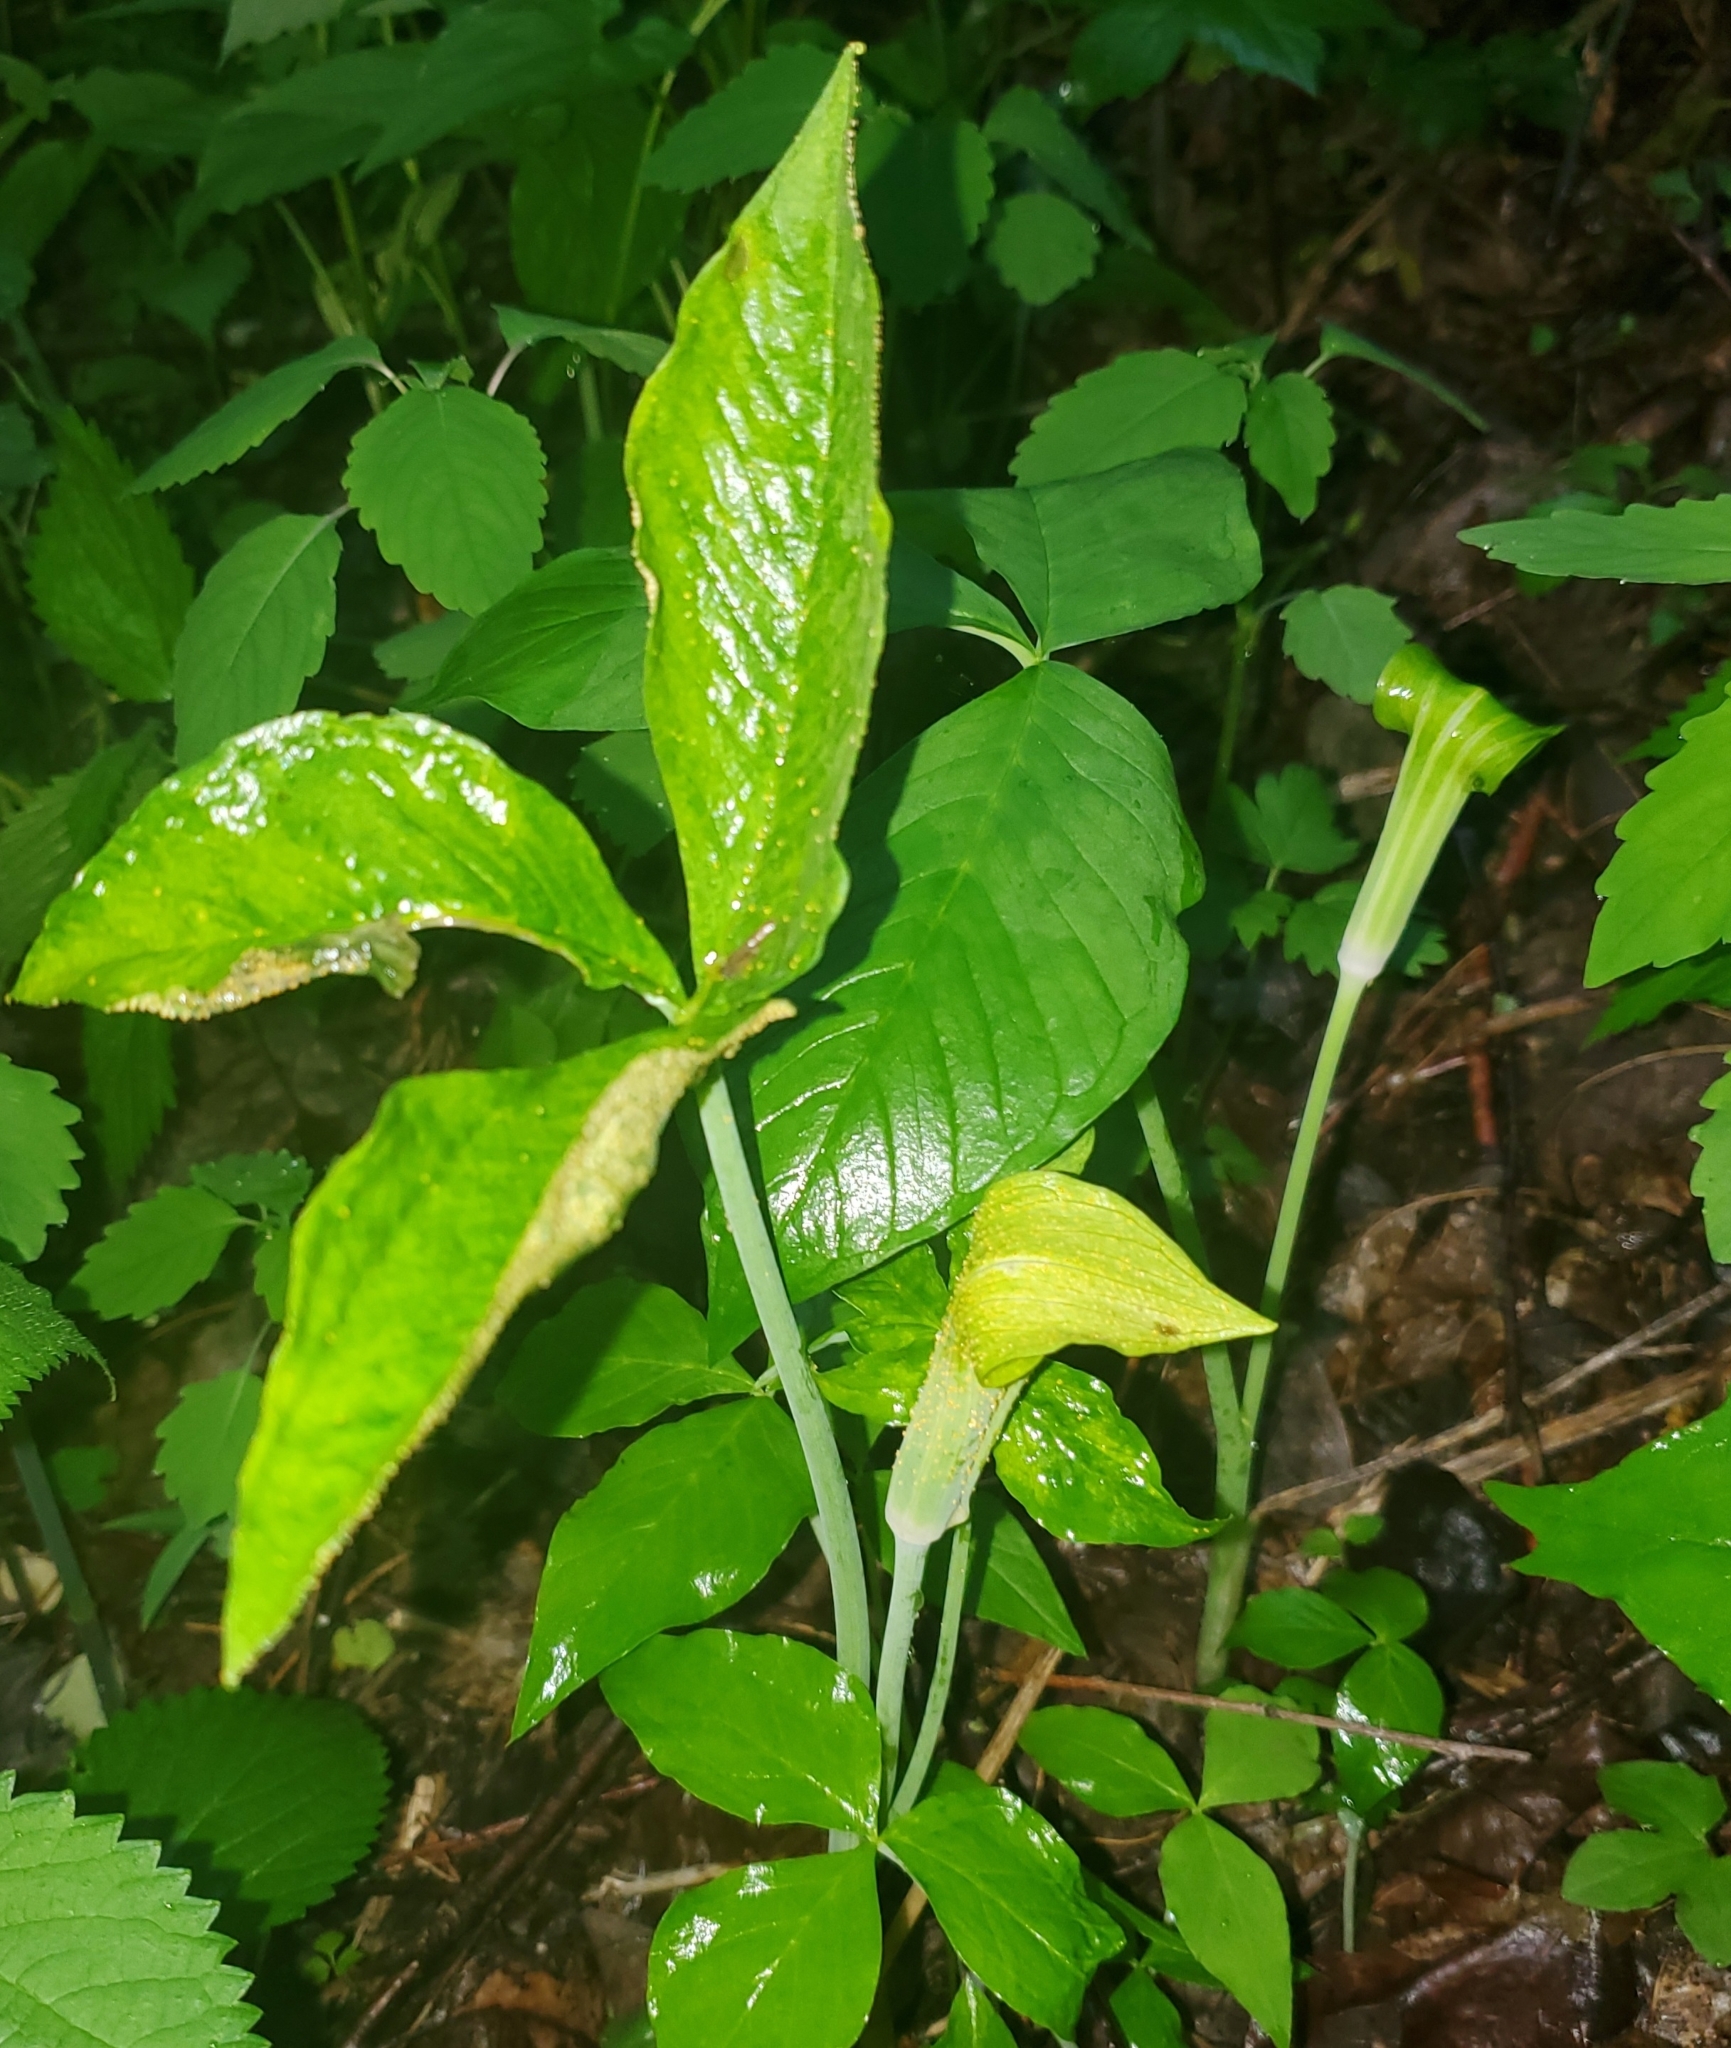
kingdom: Fungi
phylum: Basidiomycota
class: Pucciniomycetes
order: Pucciniales
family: Pucciniaceae
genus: Uromyces
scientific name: Uromyces ari-triphylli
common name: Jack-in-the-pulpit rust
